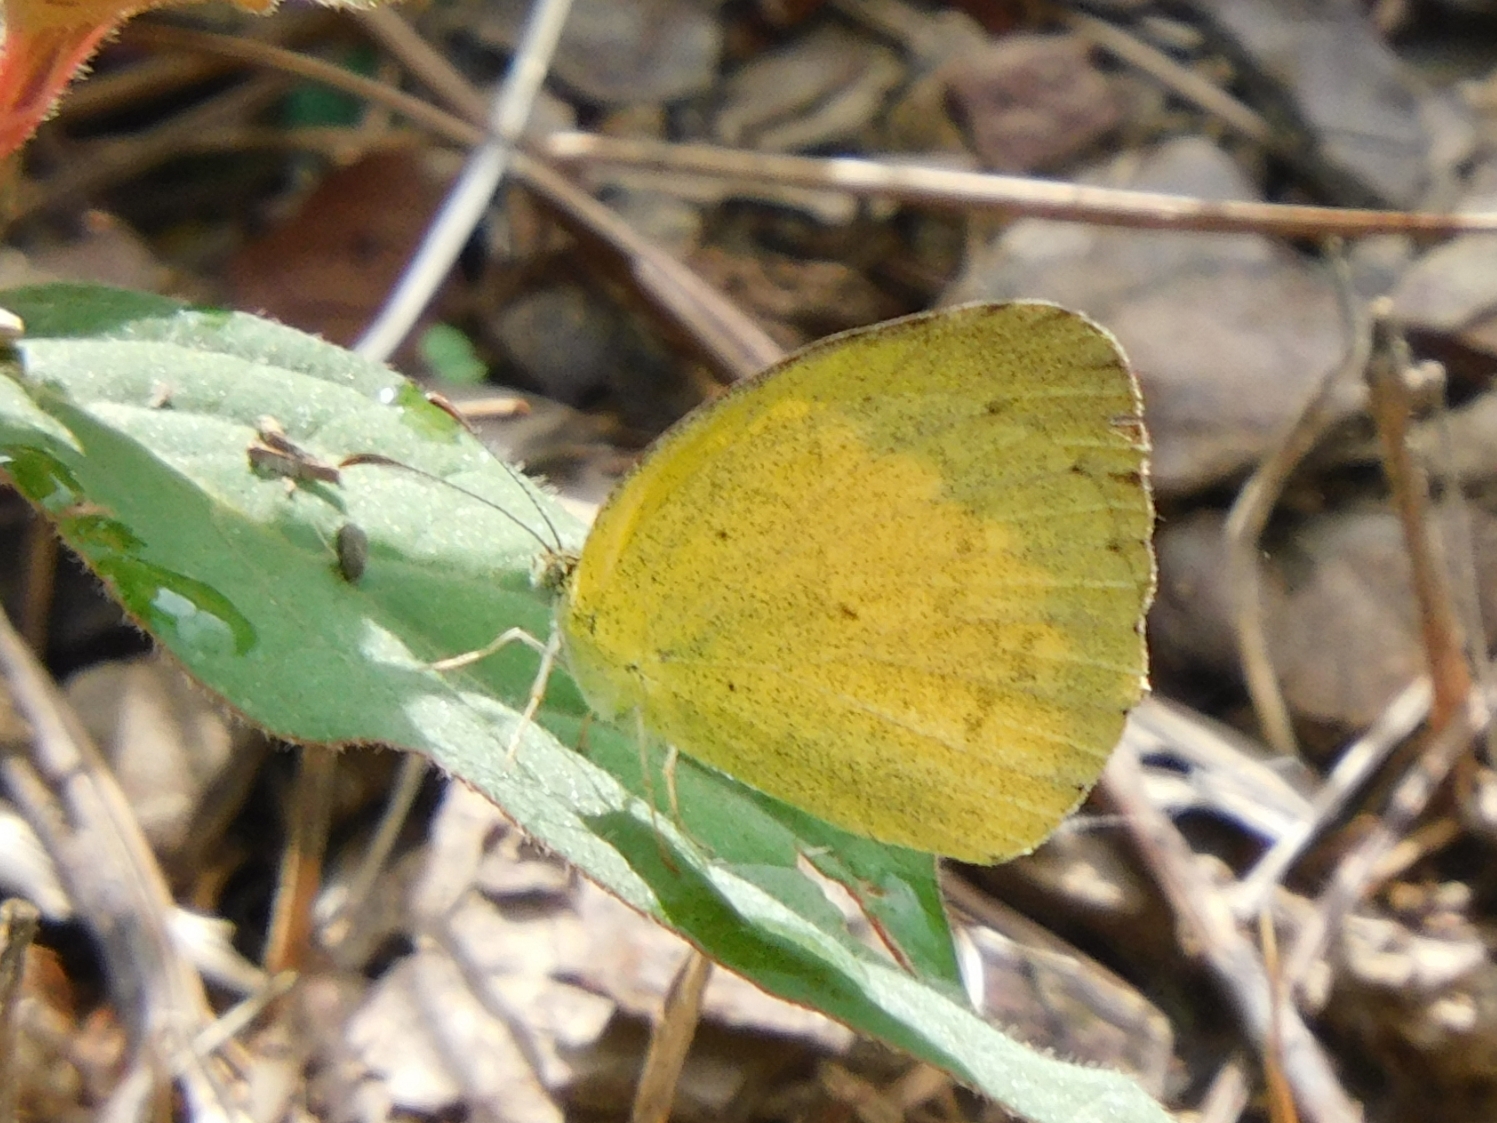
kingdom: Animalia
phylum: Arthropoda
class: Insecta
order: Lepidoptera
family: Pieridae
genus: Eurema
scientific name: Eurema brigitta
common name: Small grass yellow
